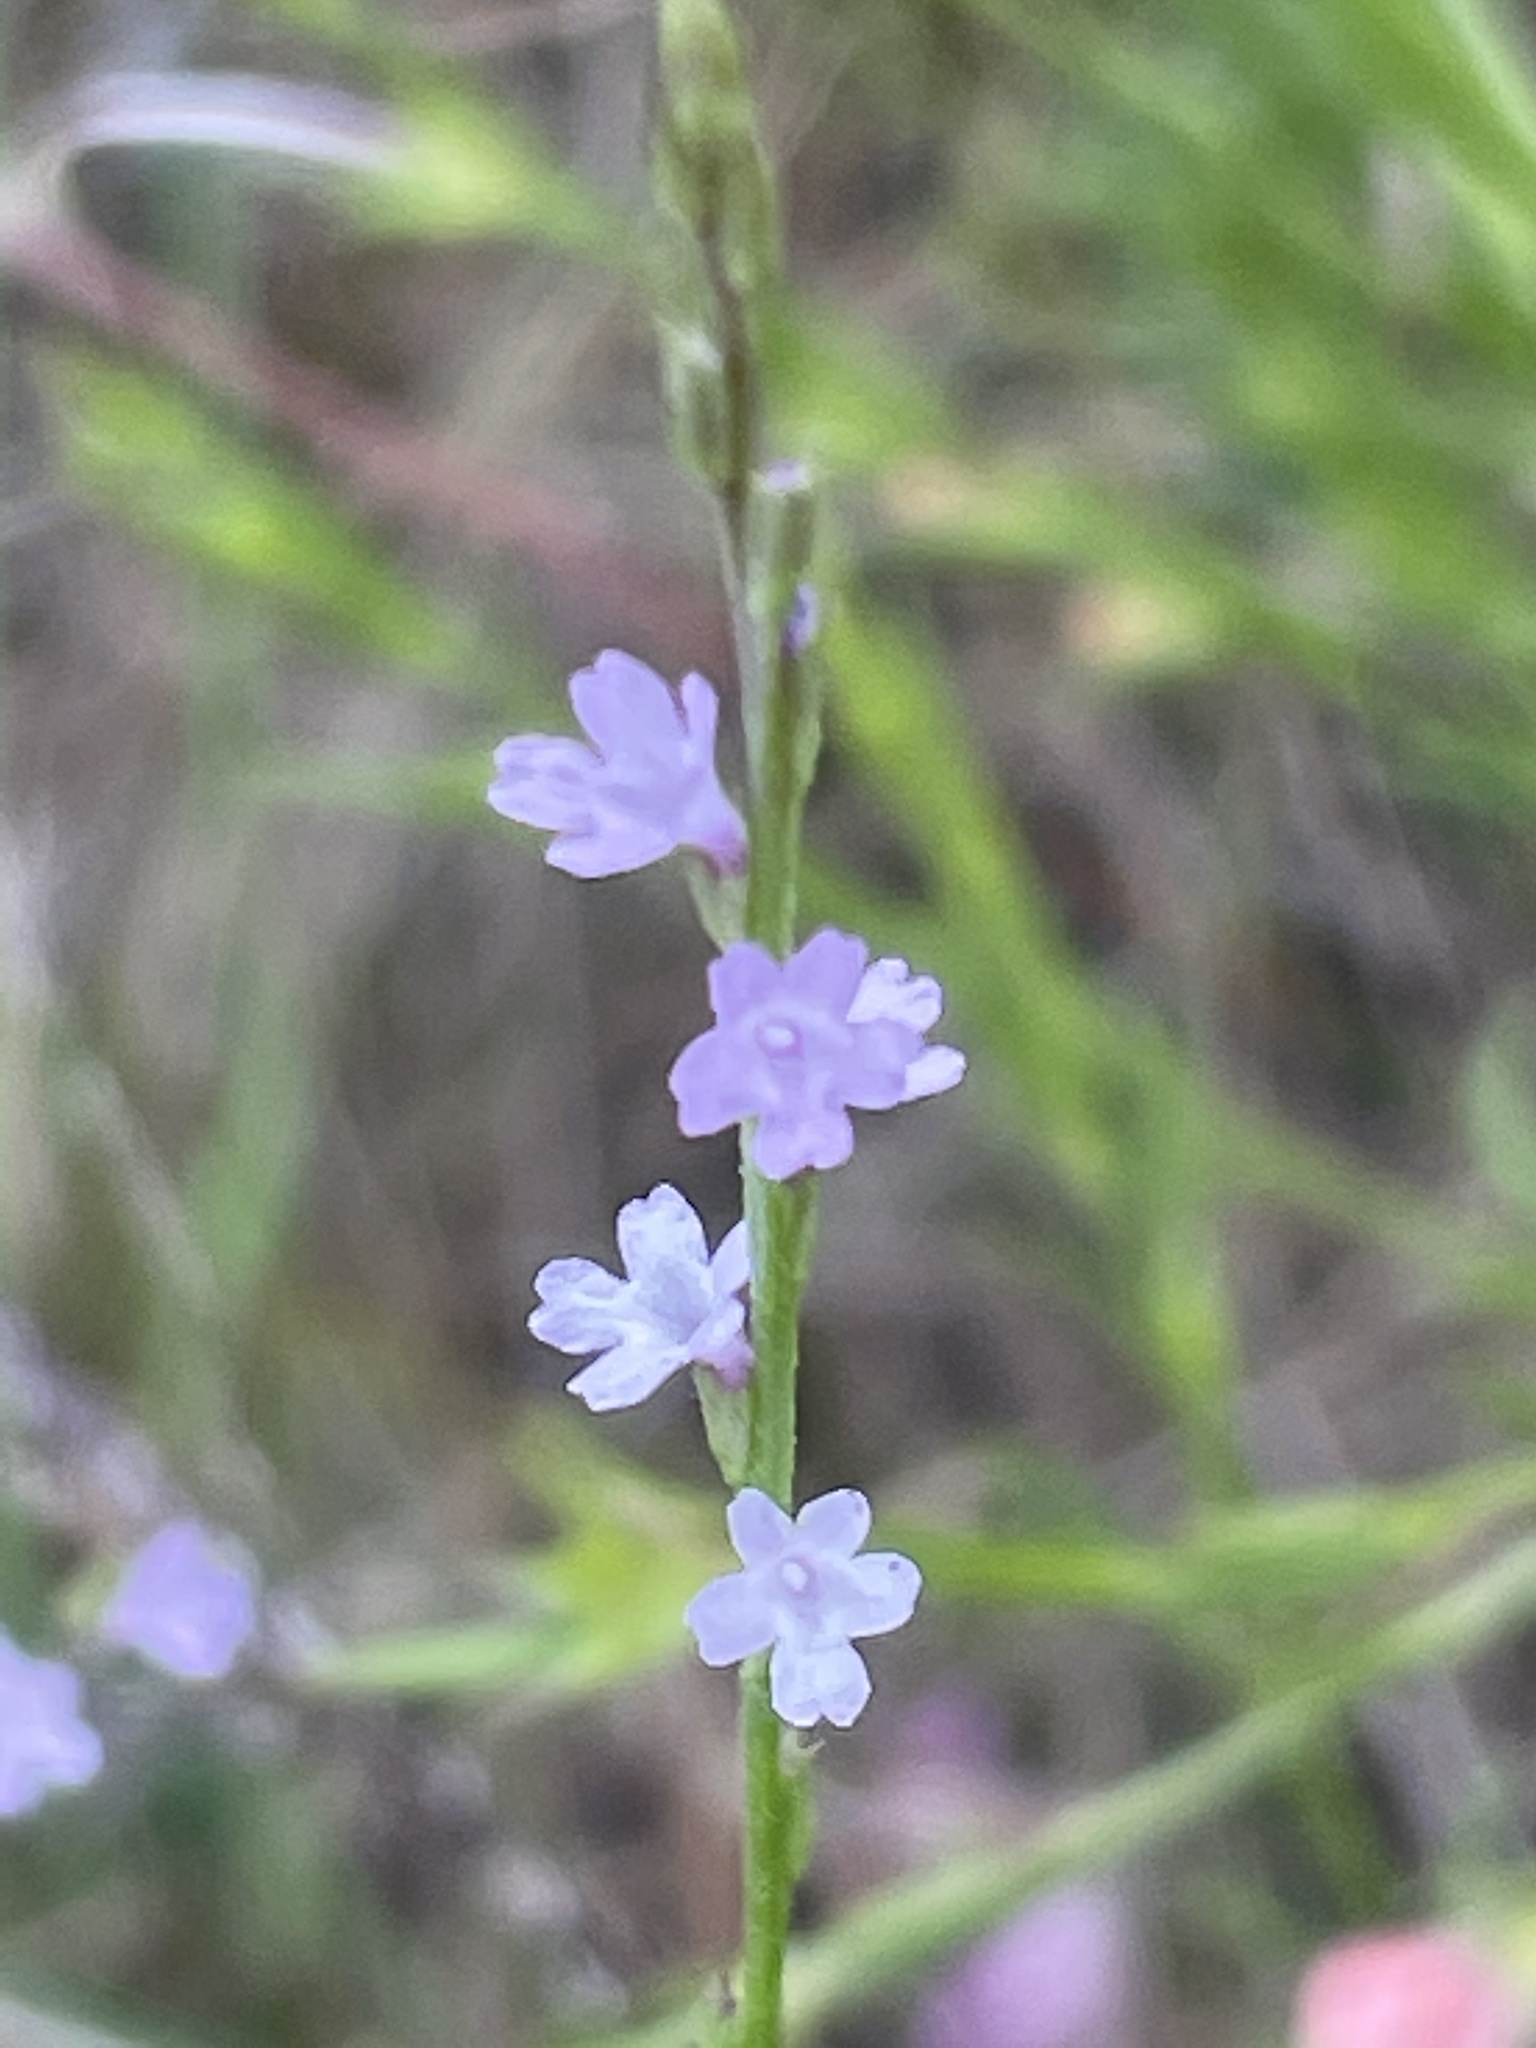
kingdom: Plantae
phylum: Tracheophyta
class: Magnoliopsida
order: Lamiales
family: Verbenaceae
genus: Verbena
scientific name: Verbena halei
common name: Texas vervain
